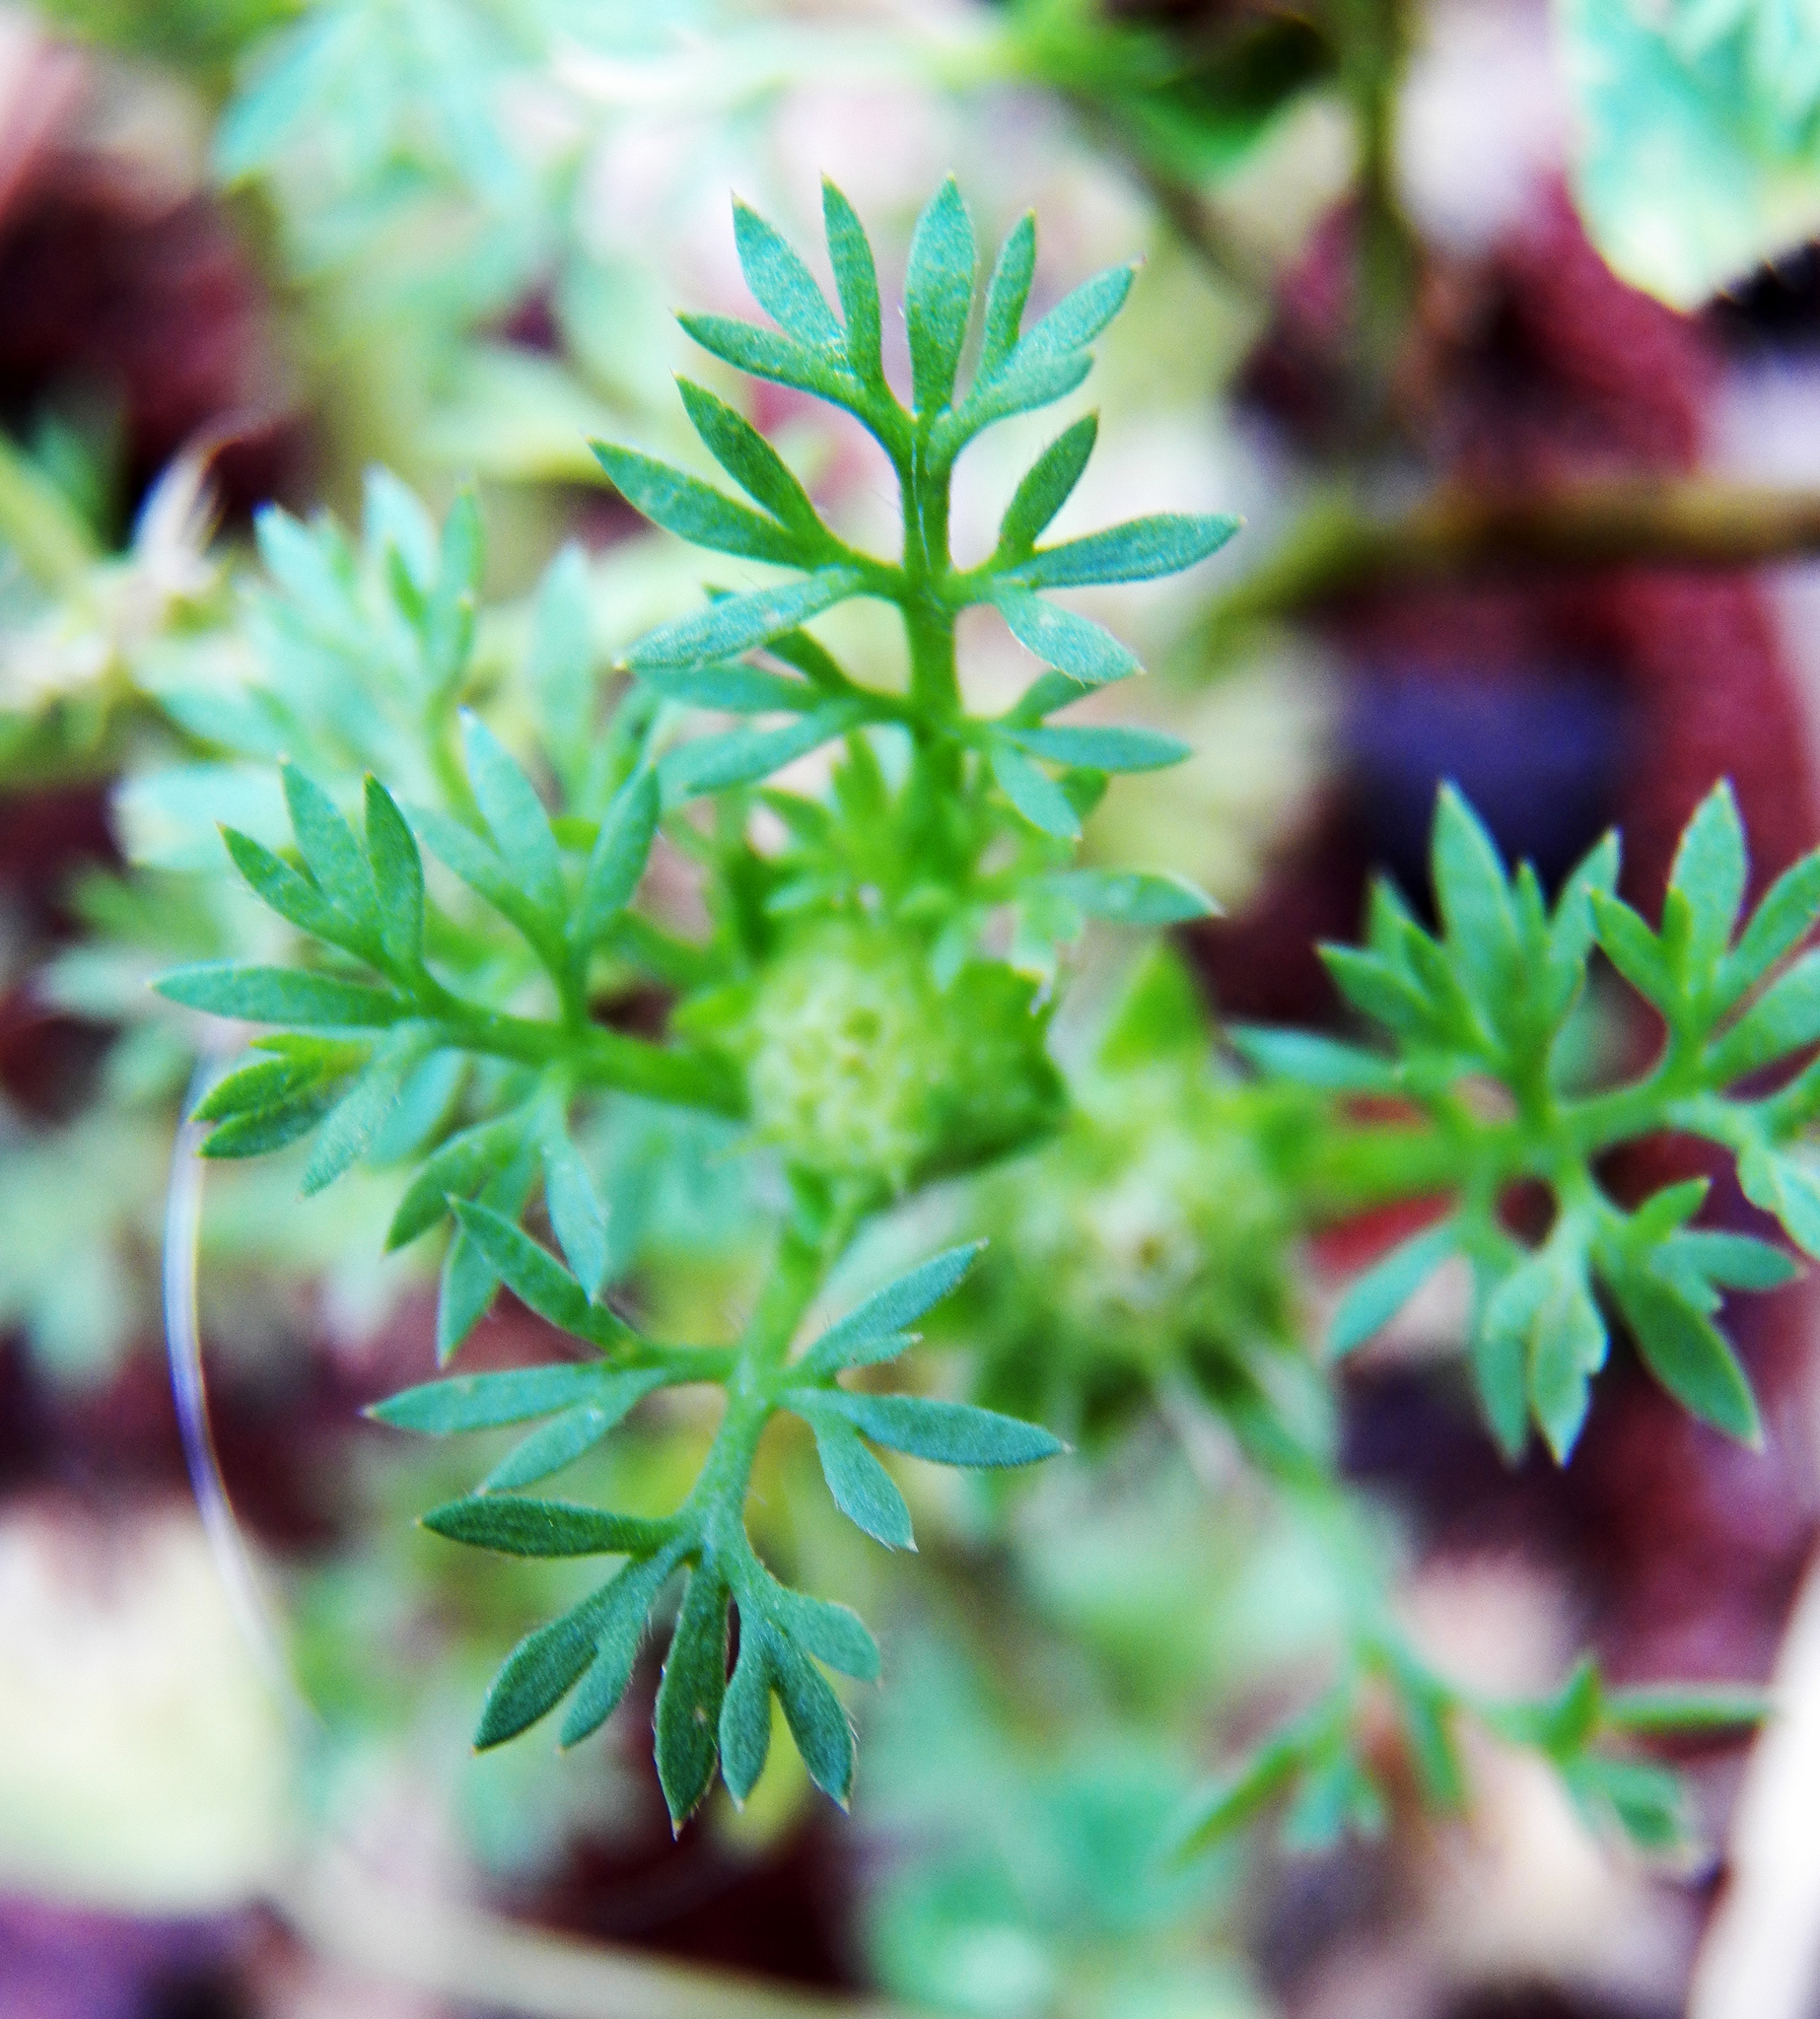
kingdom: Plantae
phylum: Tracheophyta
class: Magnoliopsida
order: Asterales
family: Asteraceae
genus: Soliva
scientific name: Soliva sessilis
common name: Field burrweed
